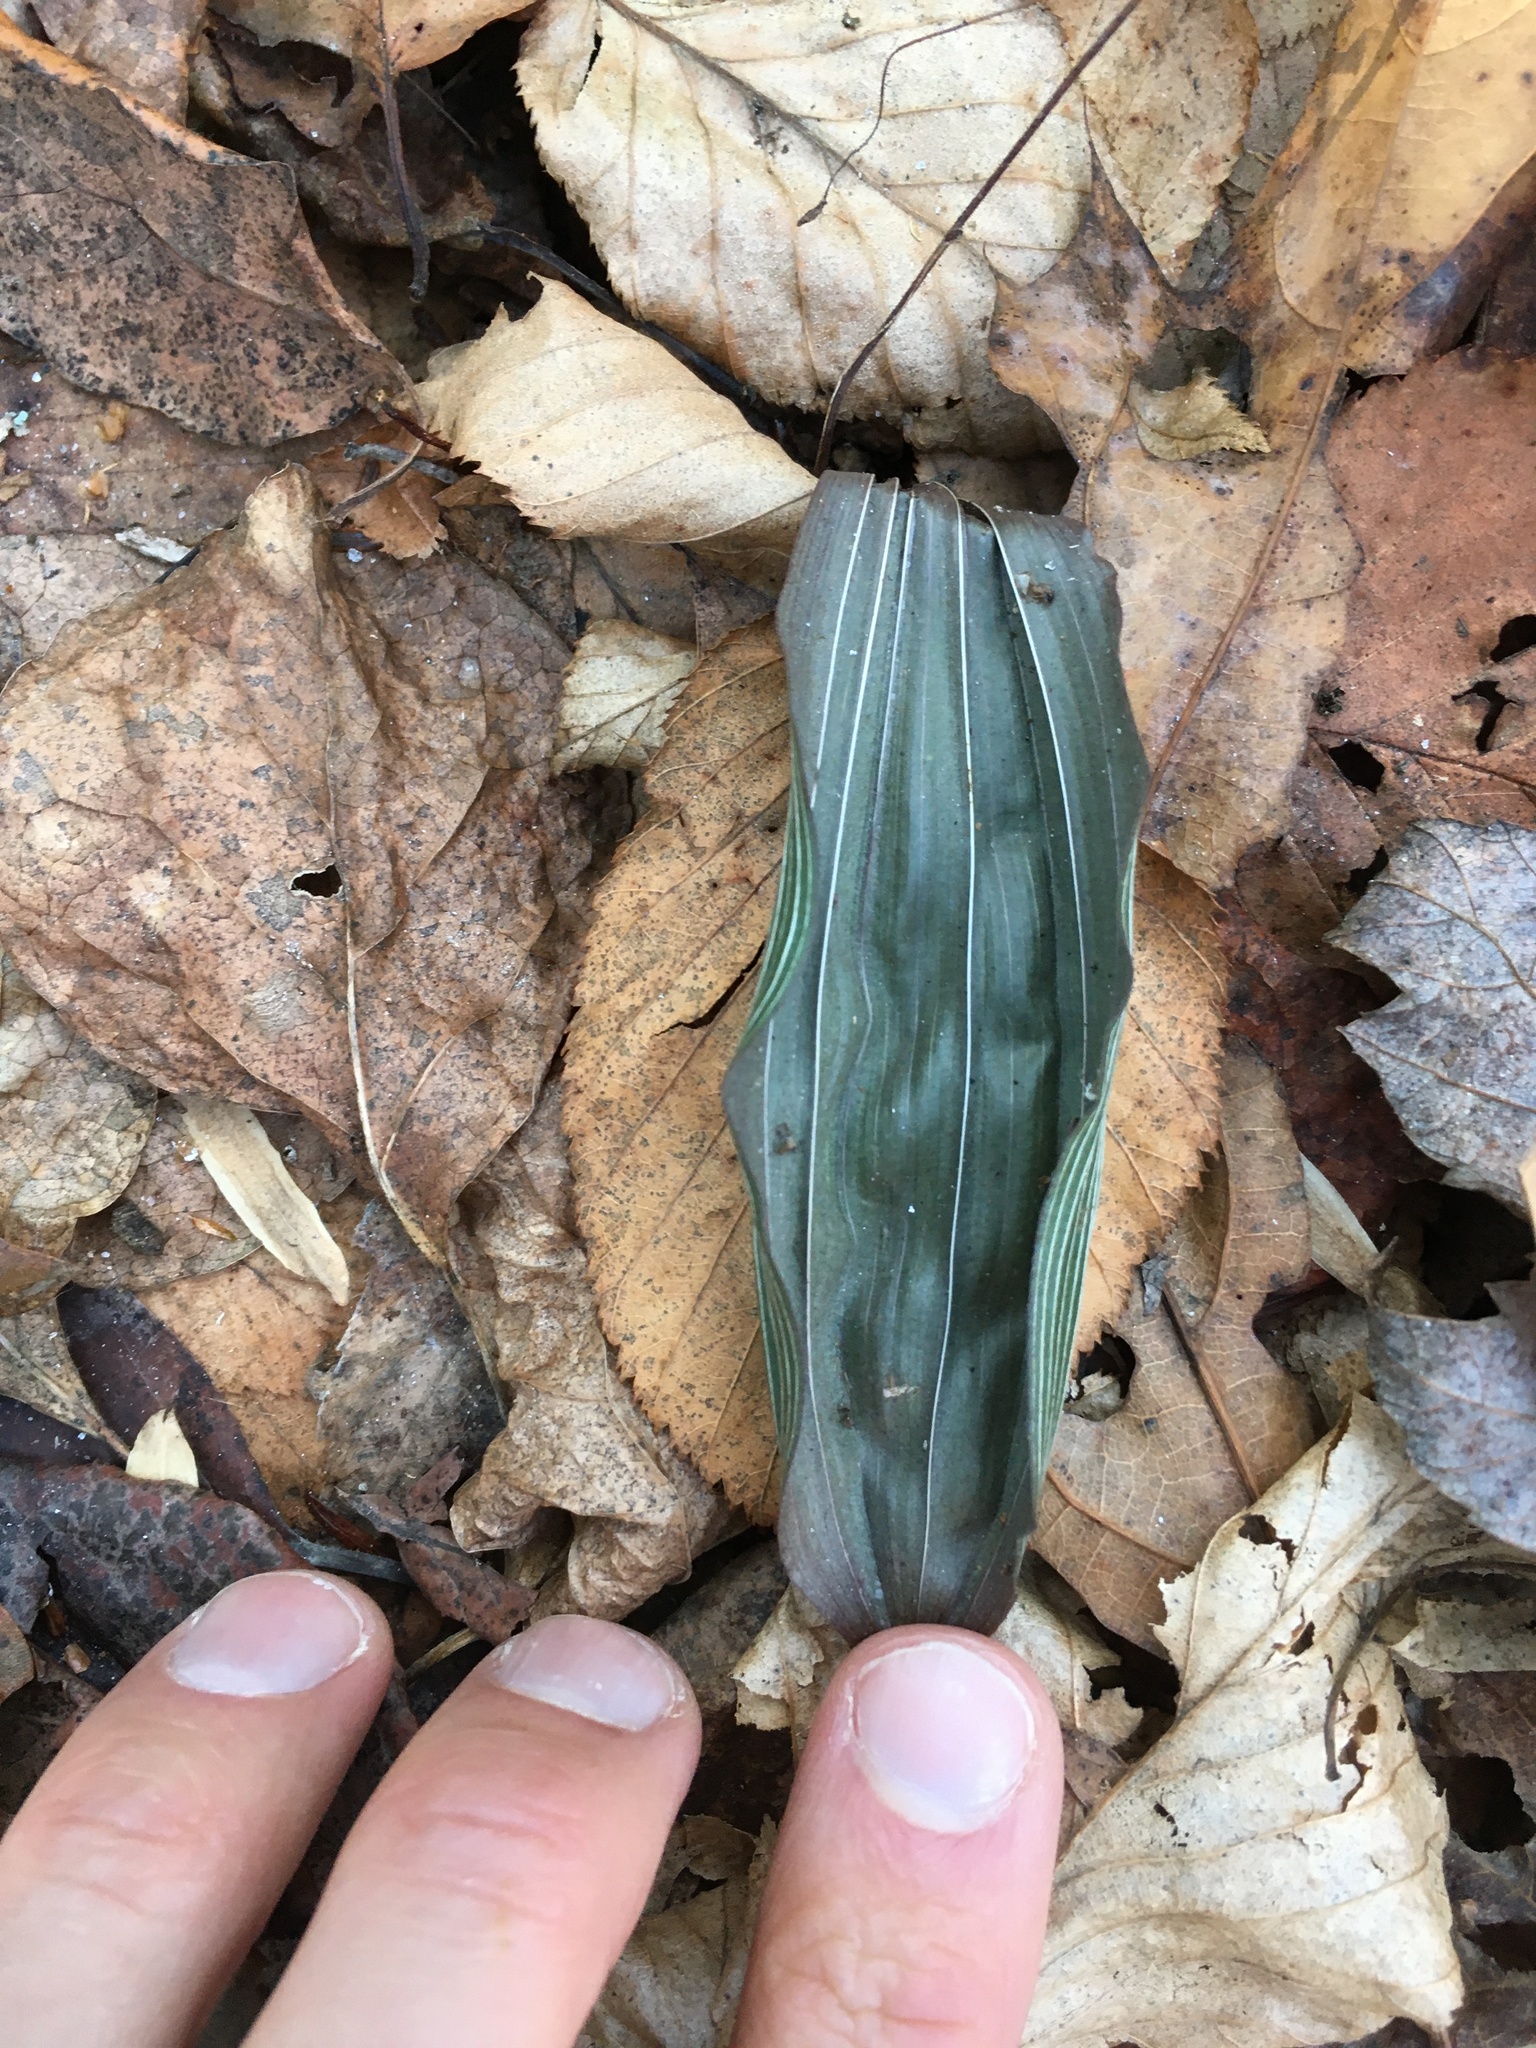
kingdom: Plantae
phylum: Tracheophyta
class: Liliopsida
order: Asparagales
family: Orchidaceae
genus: Aplectrum
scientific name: Aplectrum hyemale
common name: Adam-and-eve
